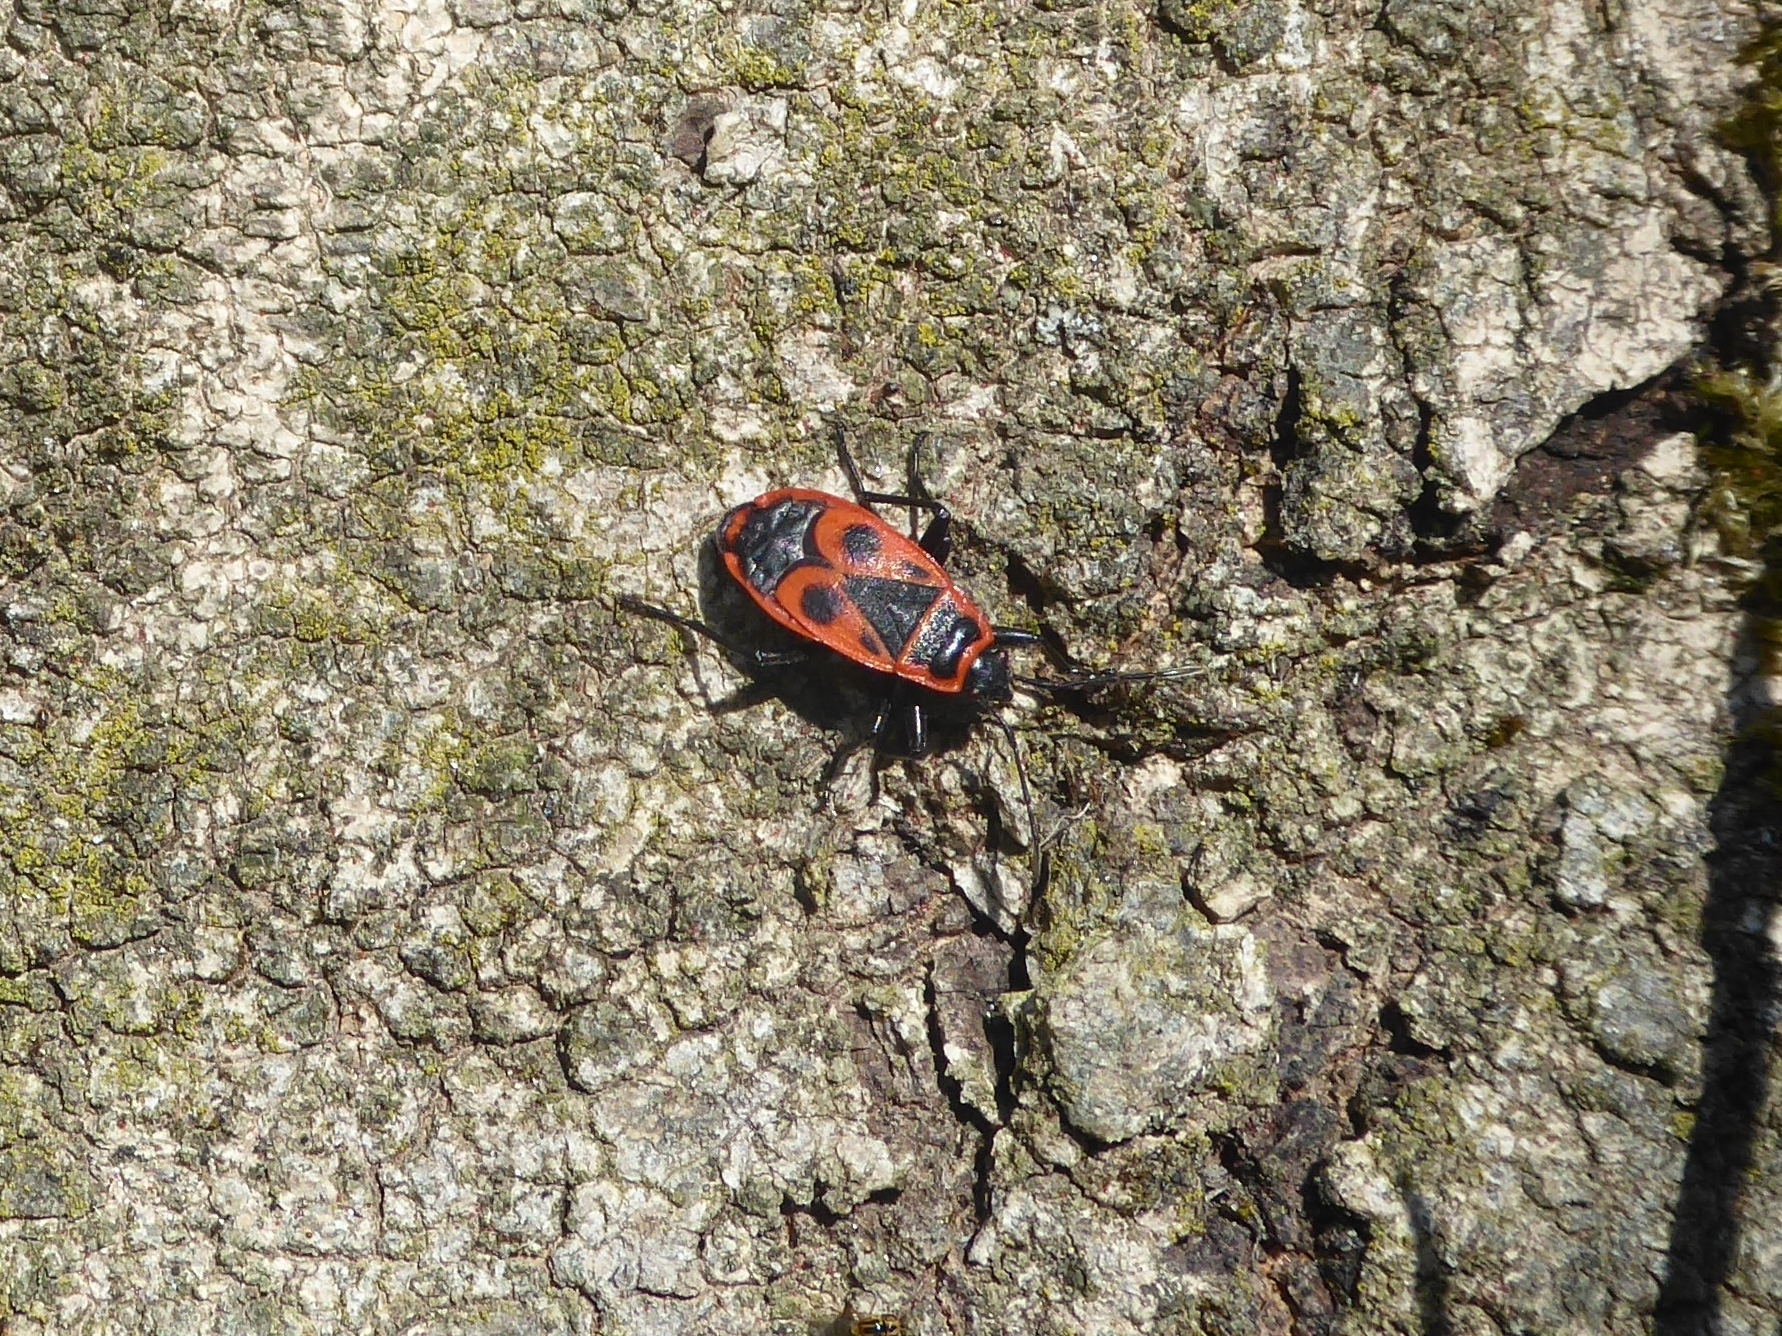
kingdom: Animalia
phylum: Arthropoda
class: Insecta
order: Hemiptera
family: Pyrrhocoridae
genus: Pyrrhocoris
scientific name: Pyrrhocoris apterus
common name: Firebug
